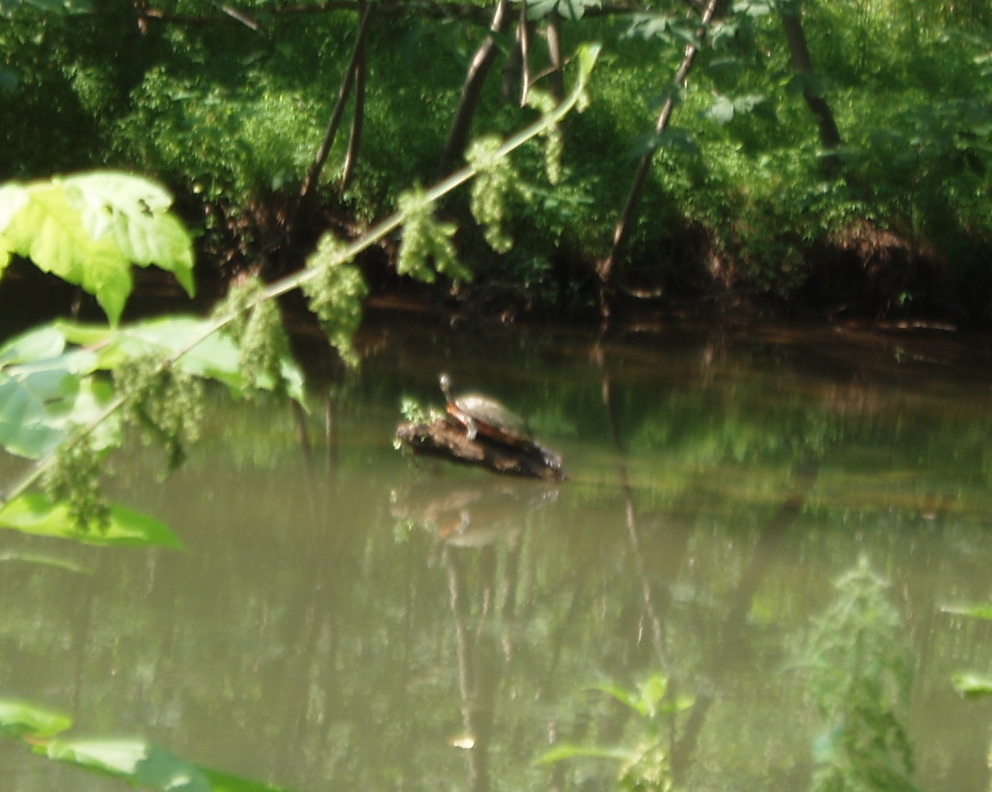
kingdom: Animalia
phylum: Chordata
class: Testudines
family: Emydidae
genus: Pseudemys
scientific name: Pseudemys rubriventris
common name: American red-bellied turtle
